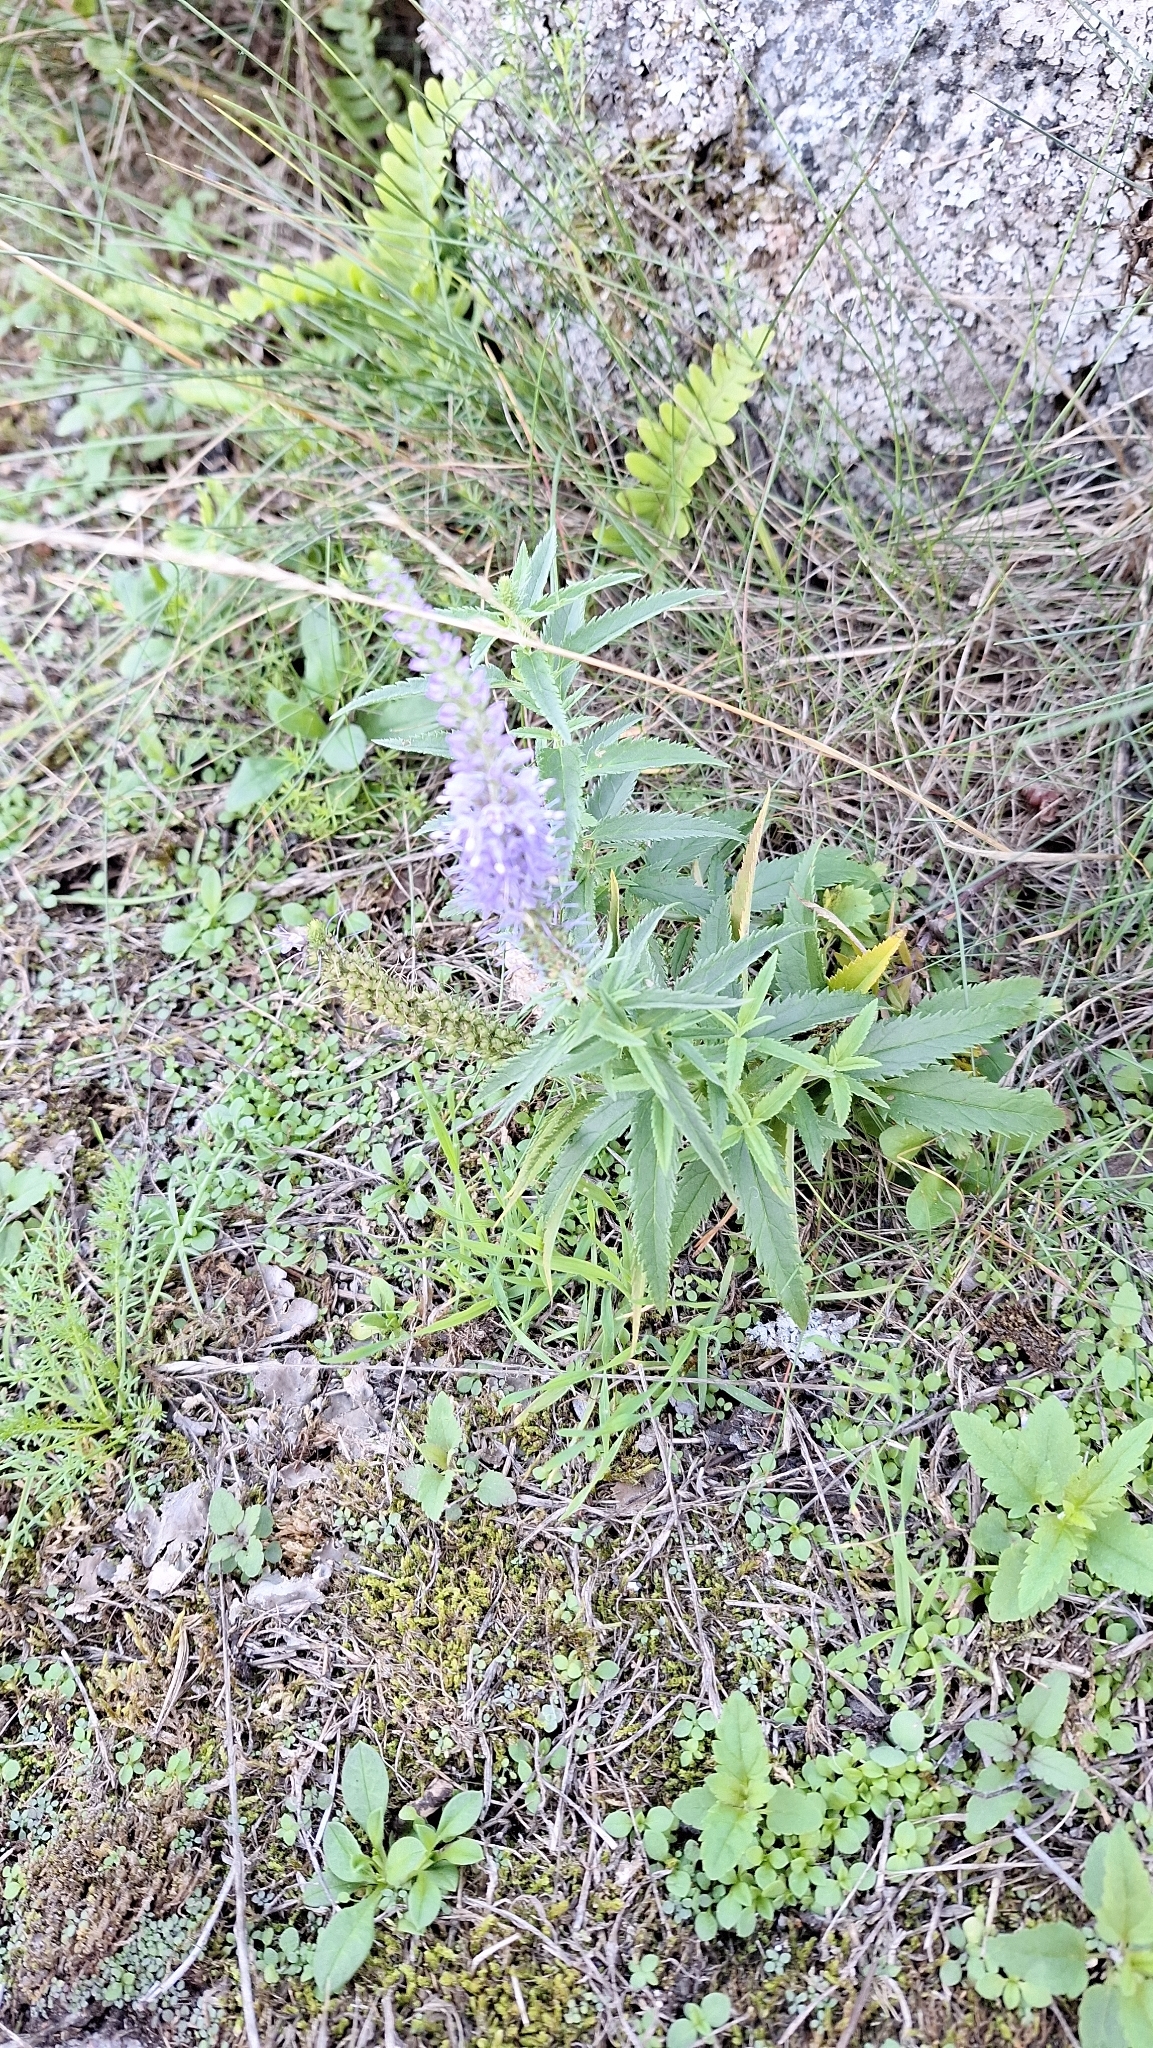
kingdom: Plantae
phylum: Tracheophyta
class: Magnoliopsida
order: Lamiales
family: Plantaginaceae
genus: Veronica
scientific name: Veronica longifolia
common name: Garden speedwell
